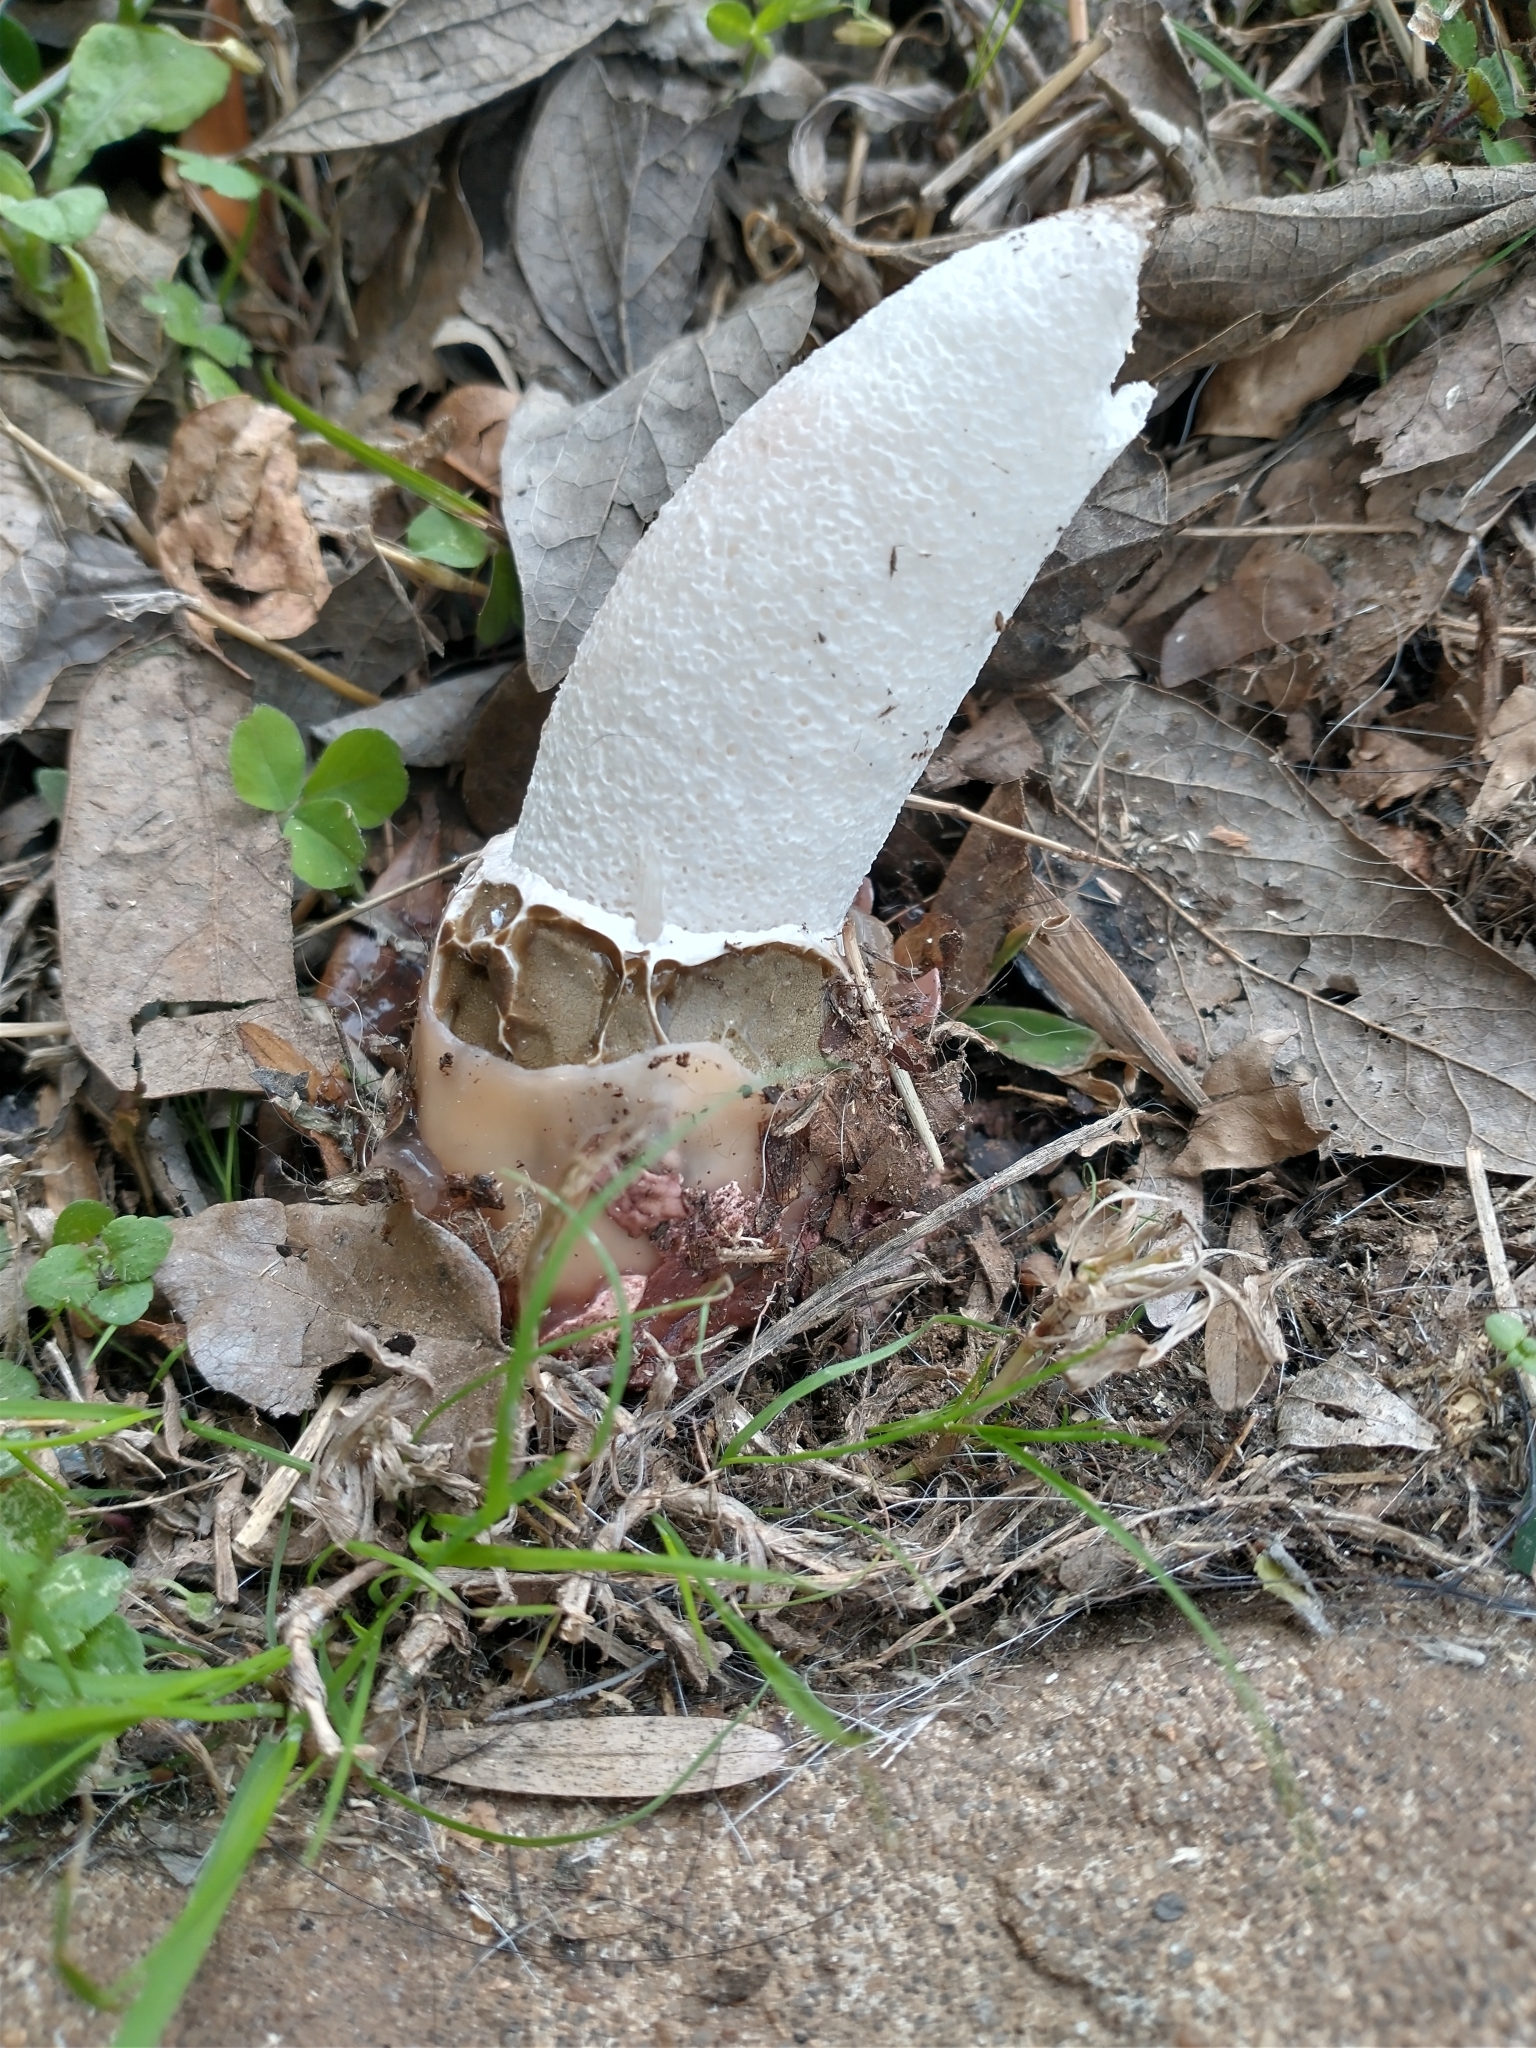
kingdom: Fungi
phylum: Basidiomycota
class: Agaricomycetes
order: Phallales
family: Phallaceae
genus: Phallus
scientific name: Phallus impudicus
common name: Common stinkhorn
